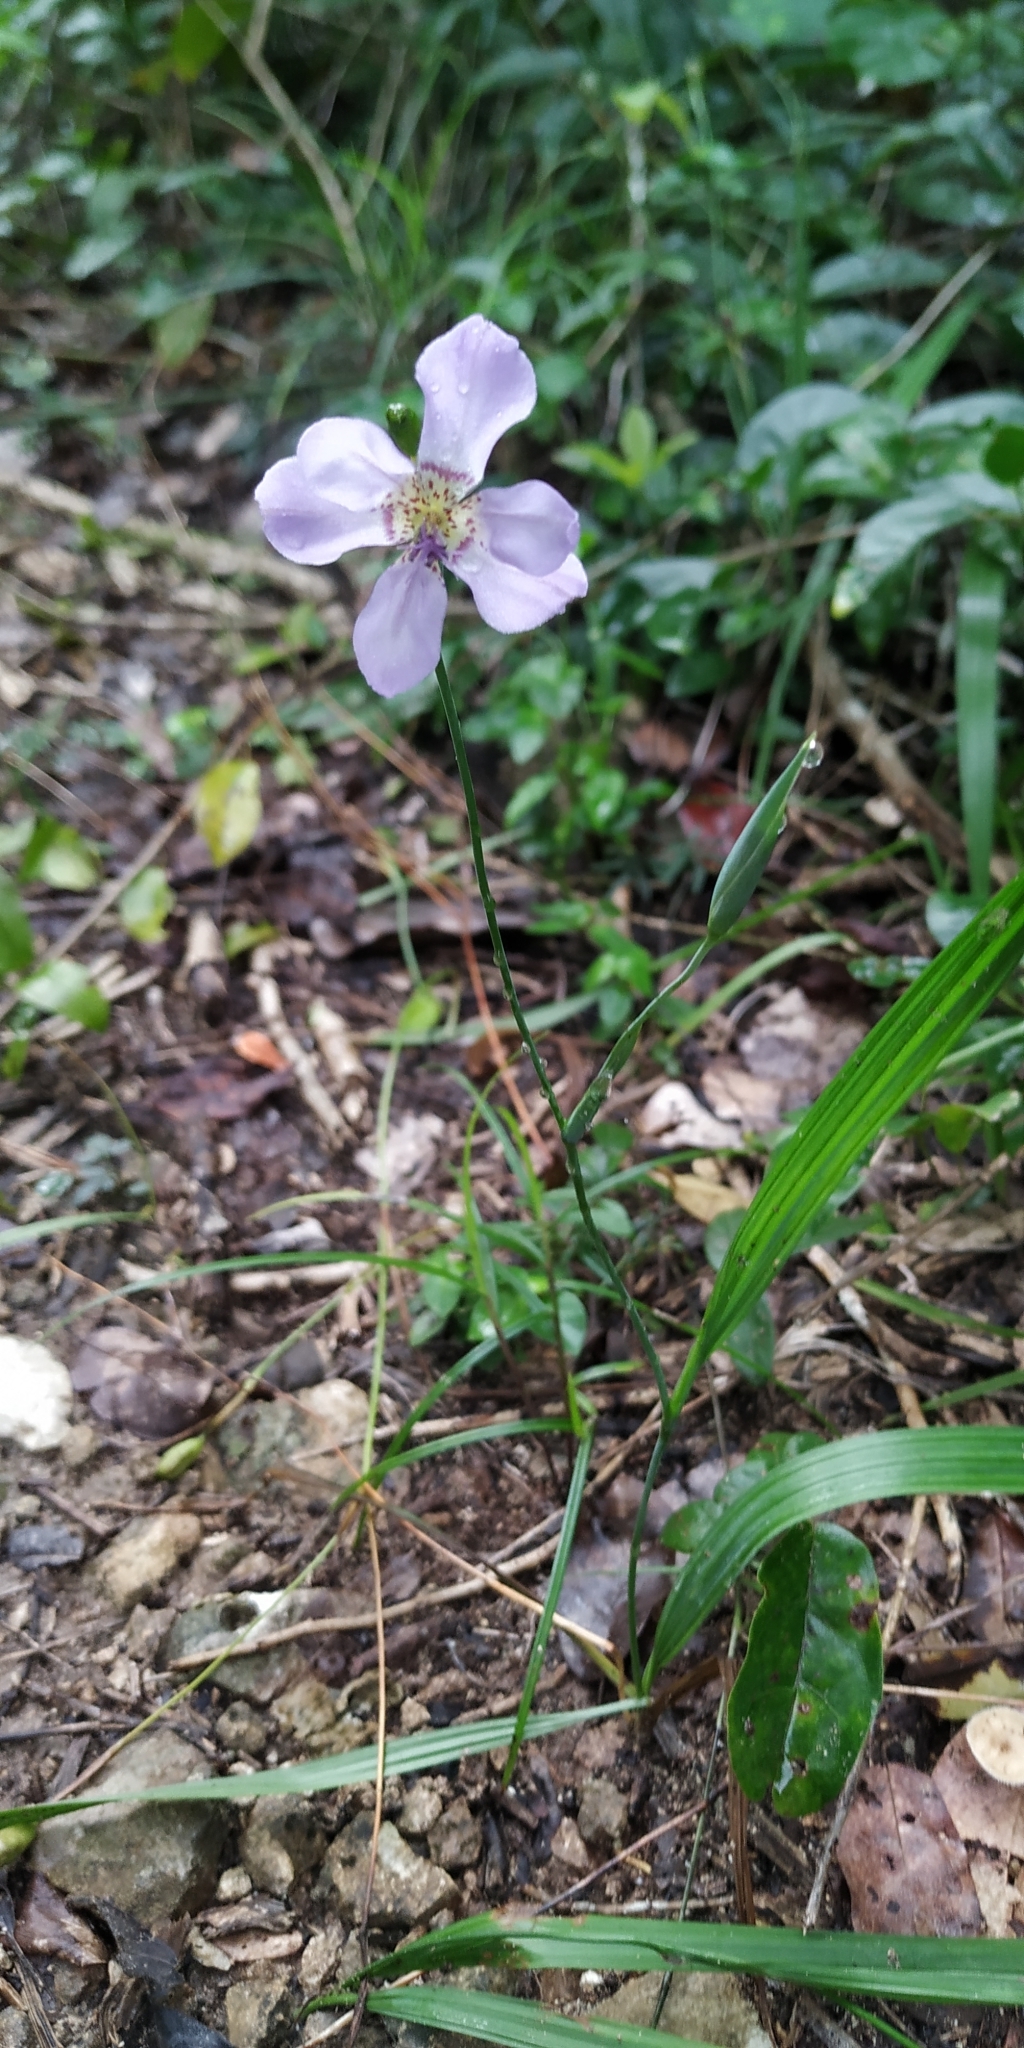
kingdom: Plantae
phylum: Tracheophyta
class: Liliopsida
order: Asparagales
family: Iridaceae
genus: Alophia
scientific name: Alophia silvestris
